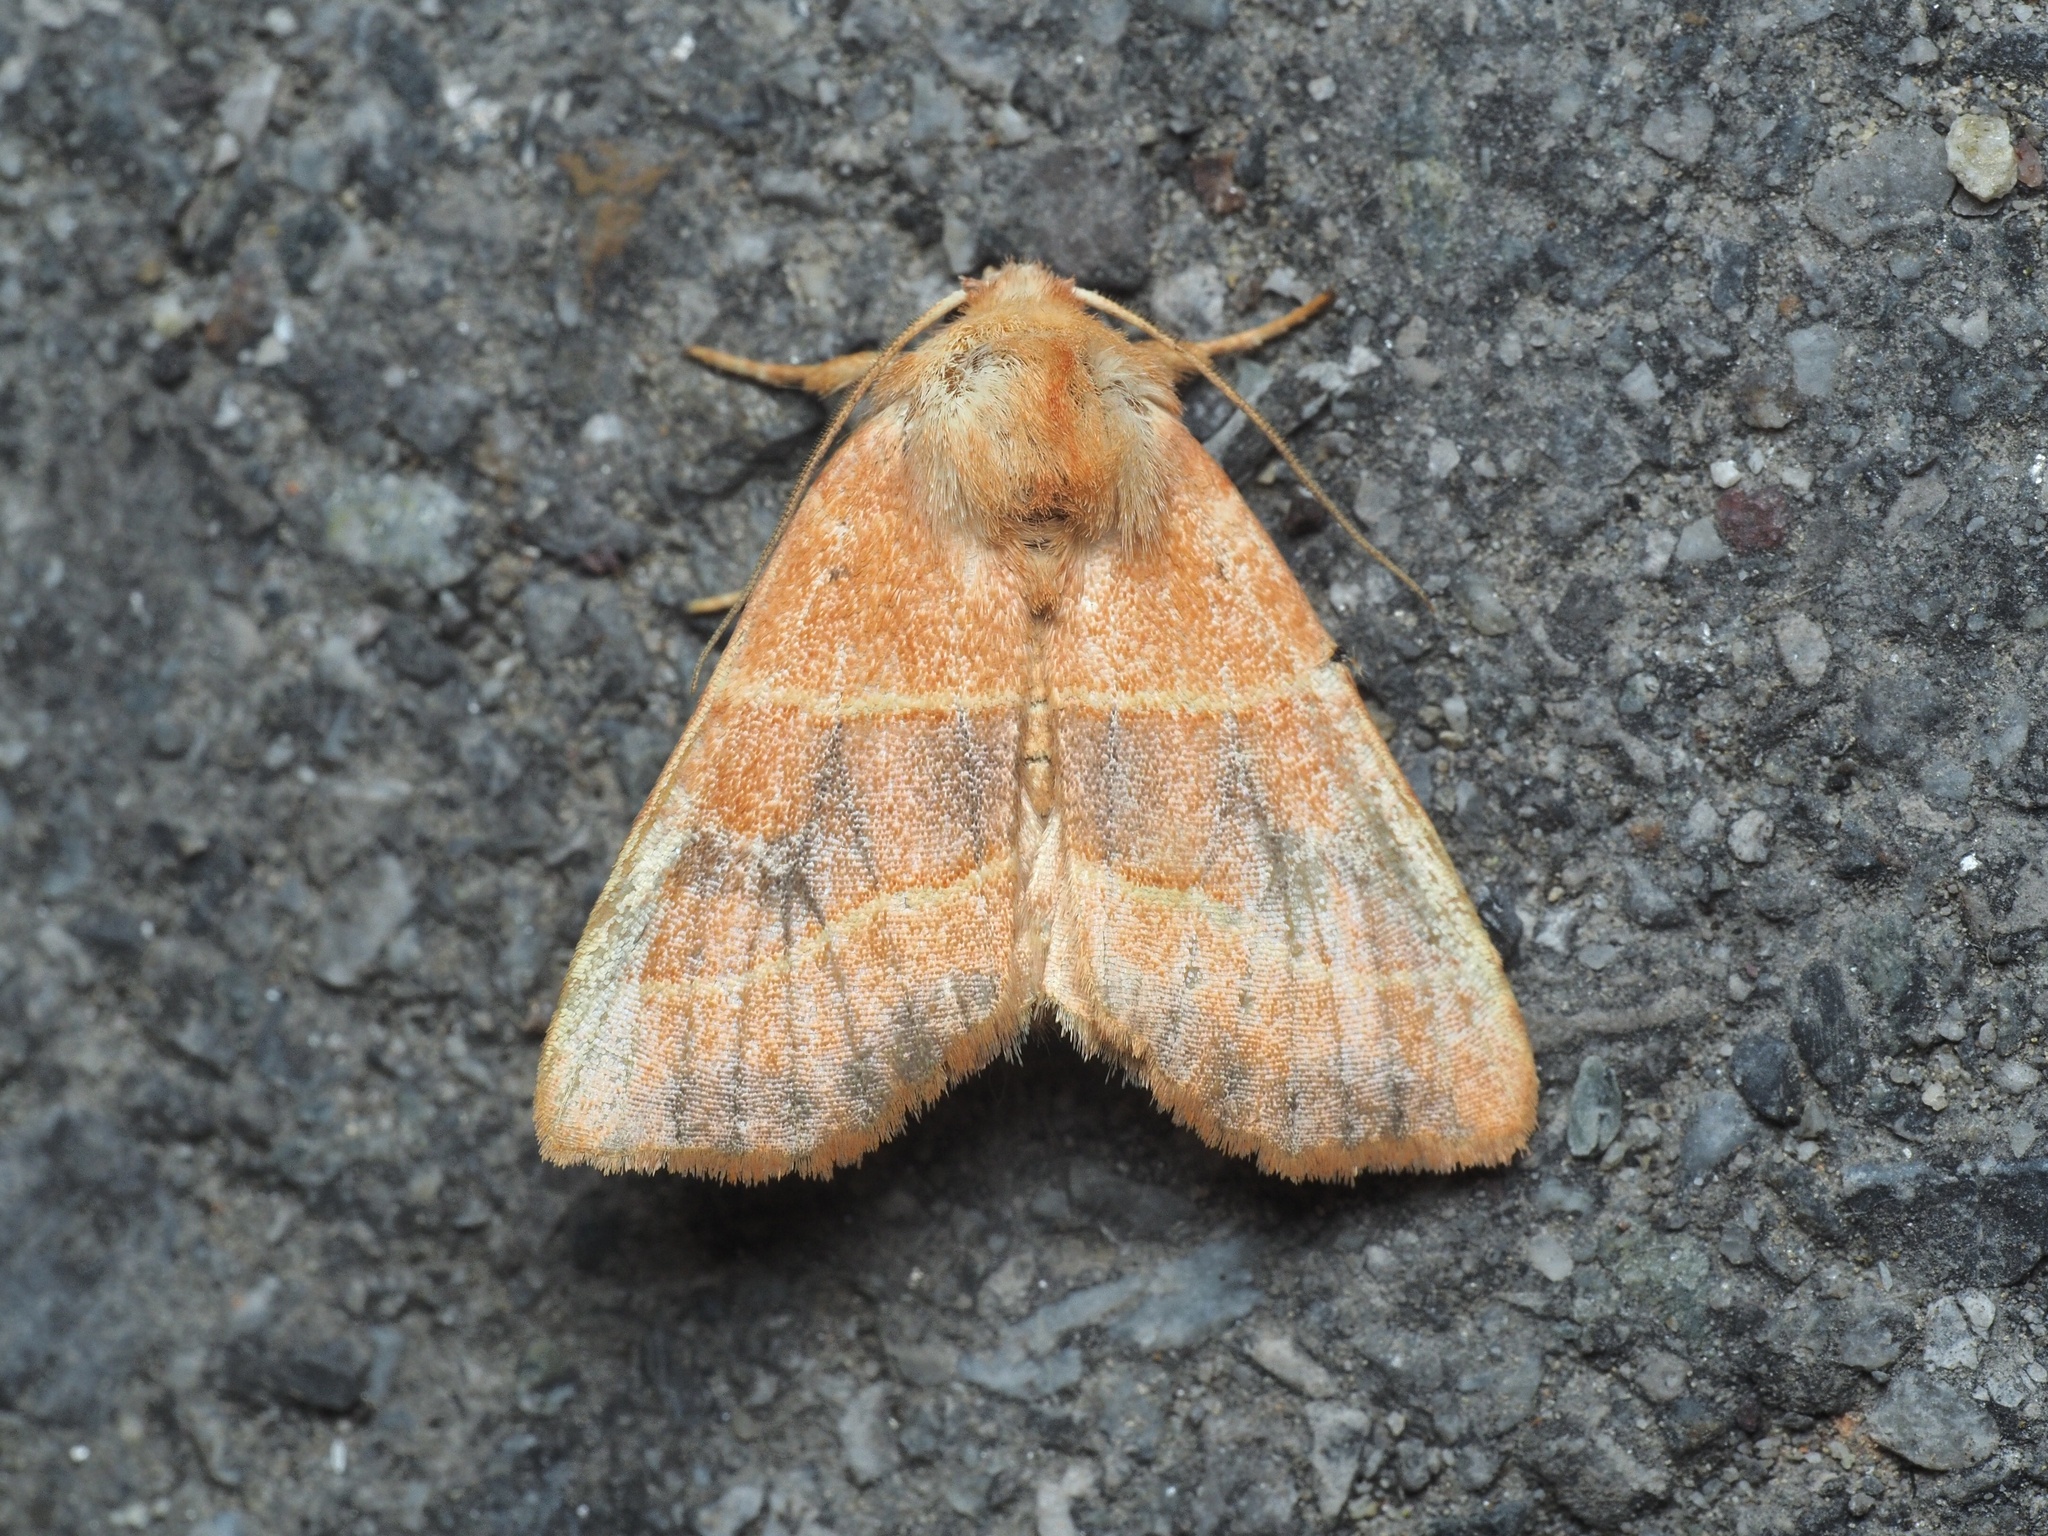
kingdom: Animalia
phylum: Arthropoda
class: Insecta
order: Lepidoptera
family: Noctuidae
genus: Atethmia
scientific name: Atethmia centrago
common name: Centre-barred sallow
